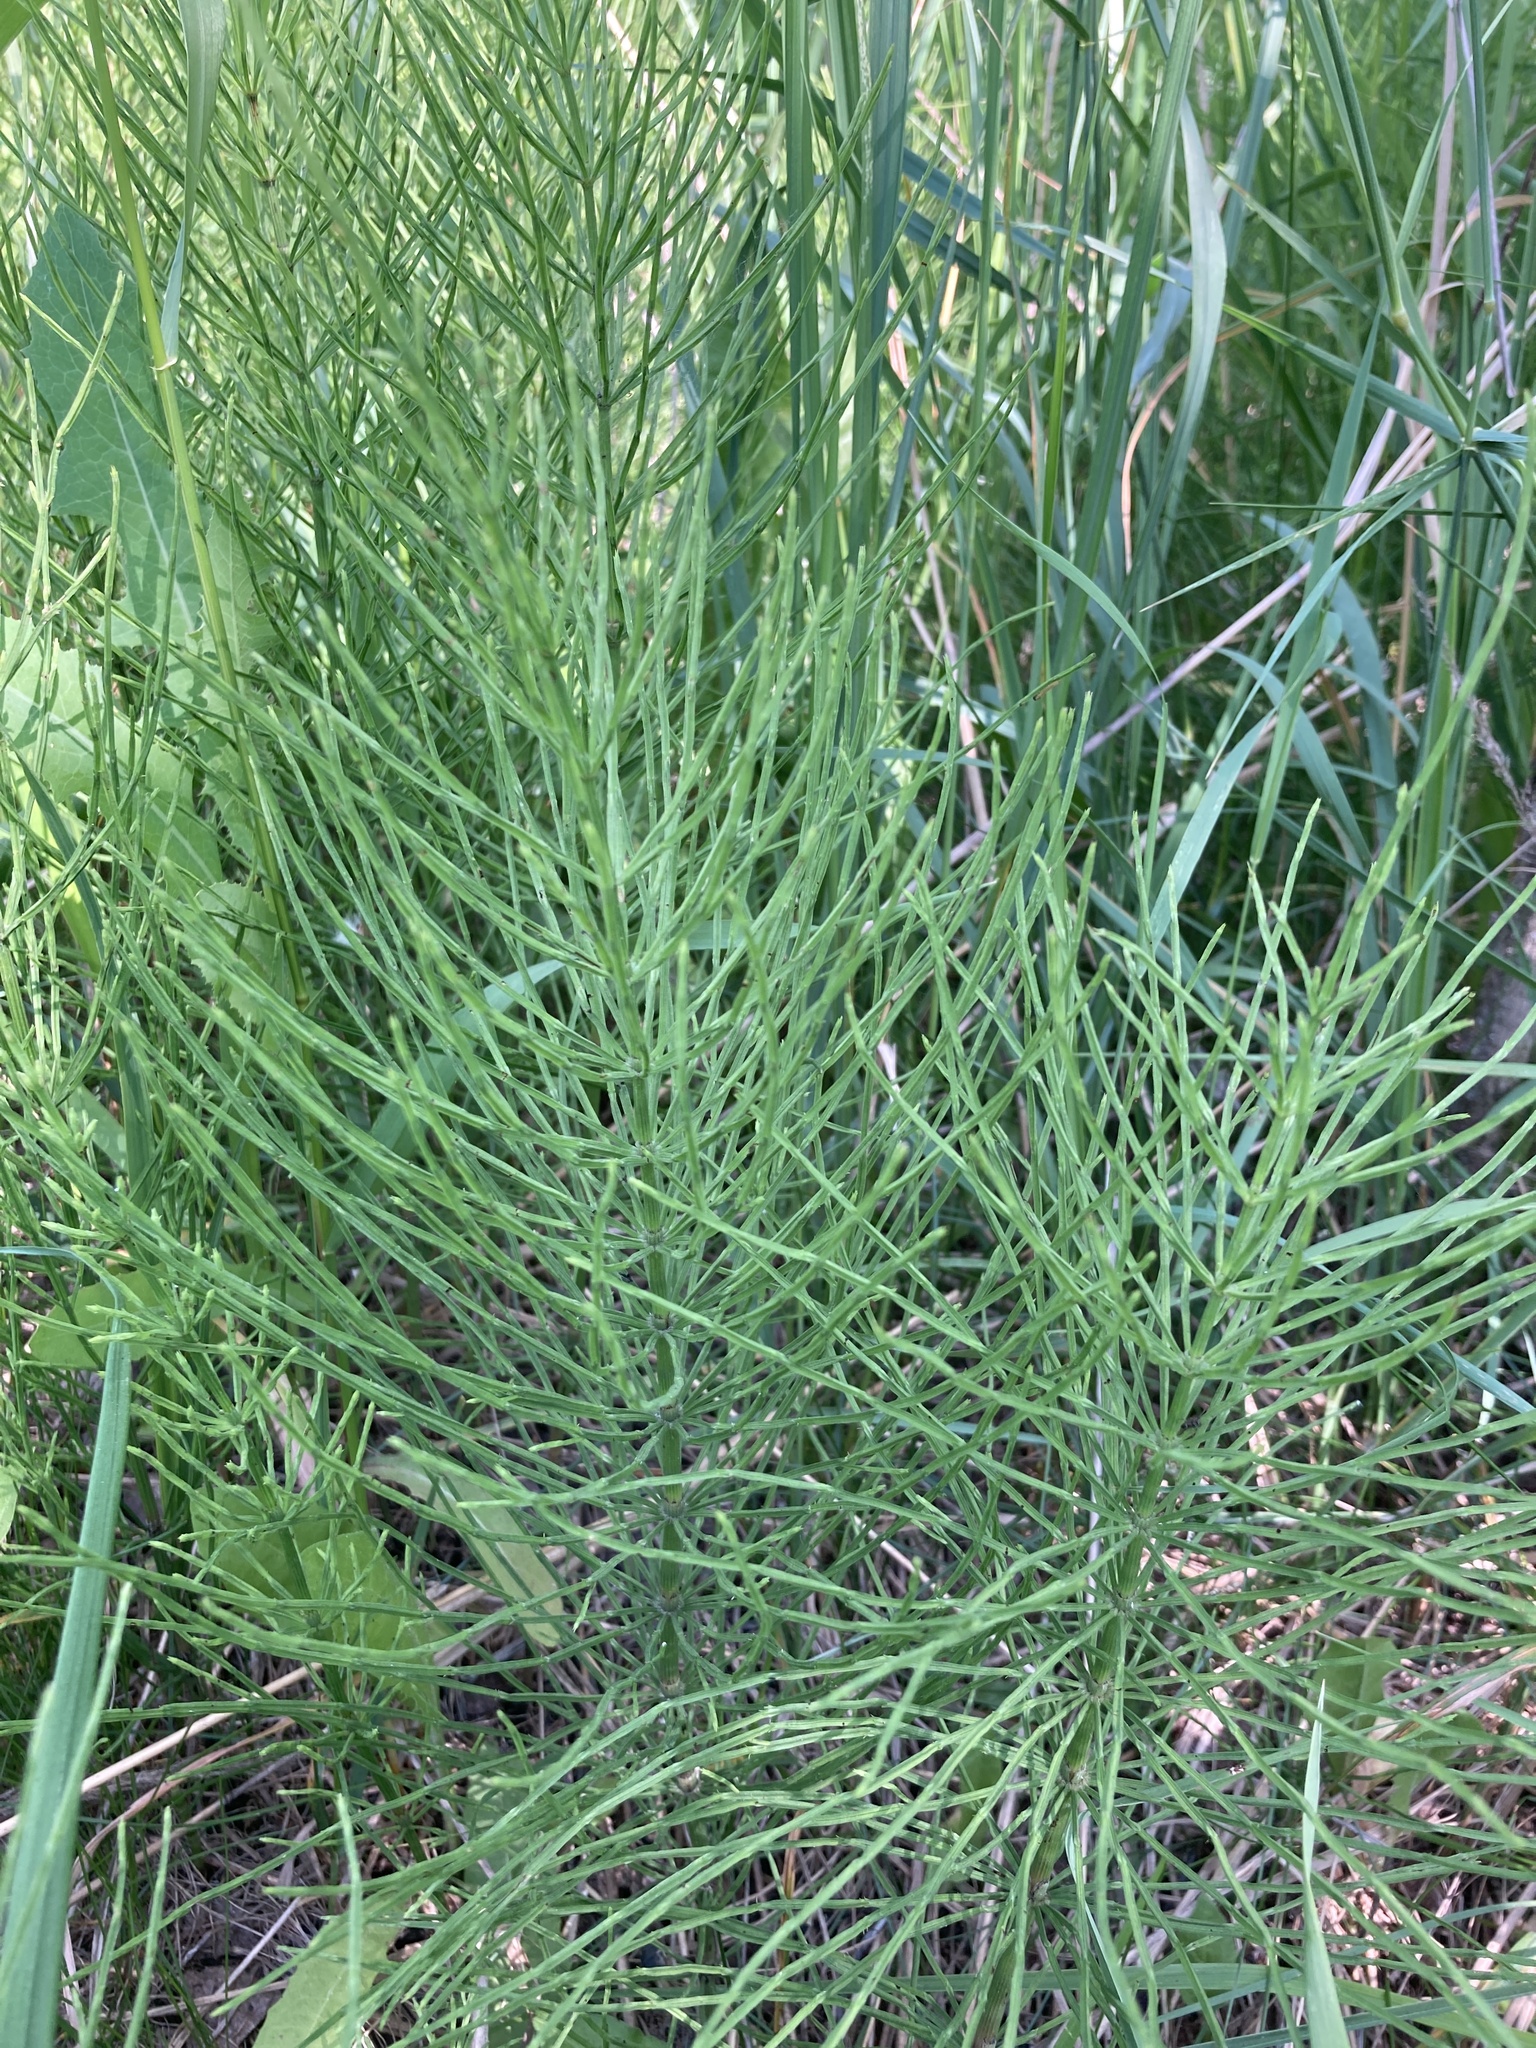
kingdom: Plantae
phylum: Tracheophyta
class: Polypodiopsida
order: Equisetales
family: Equisetaceae
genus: Equisetum
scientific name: Equisetum arvense
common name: Field horsetail
